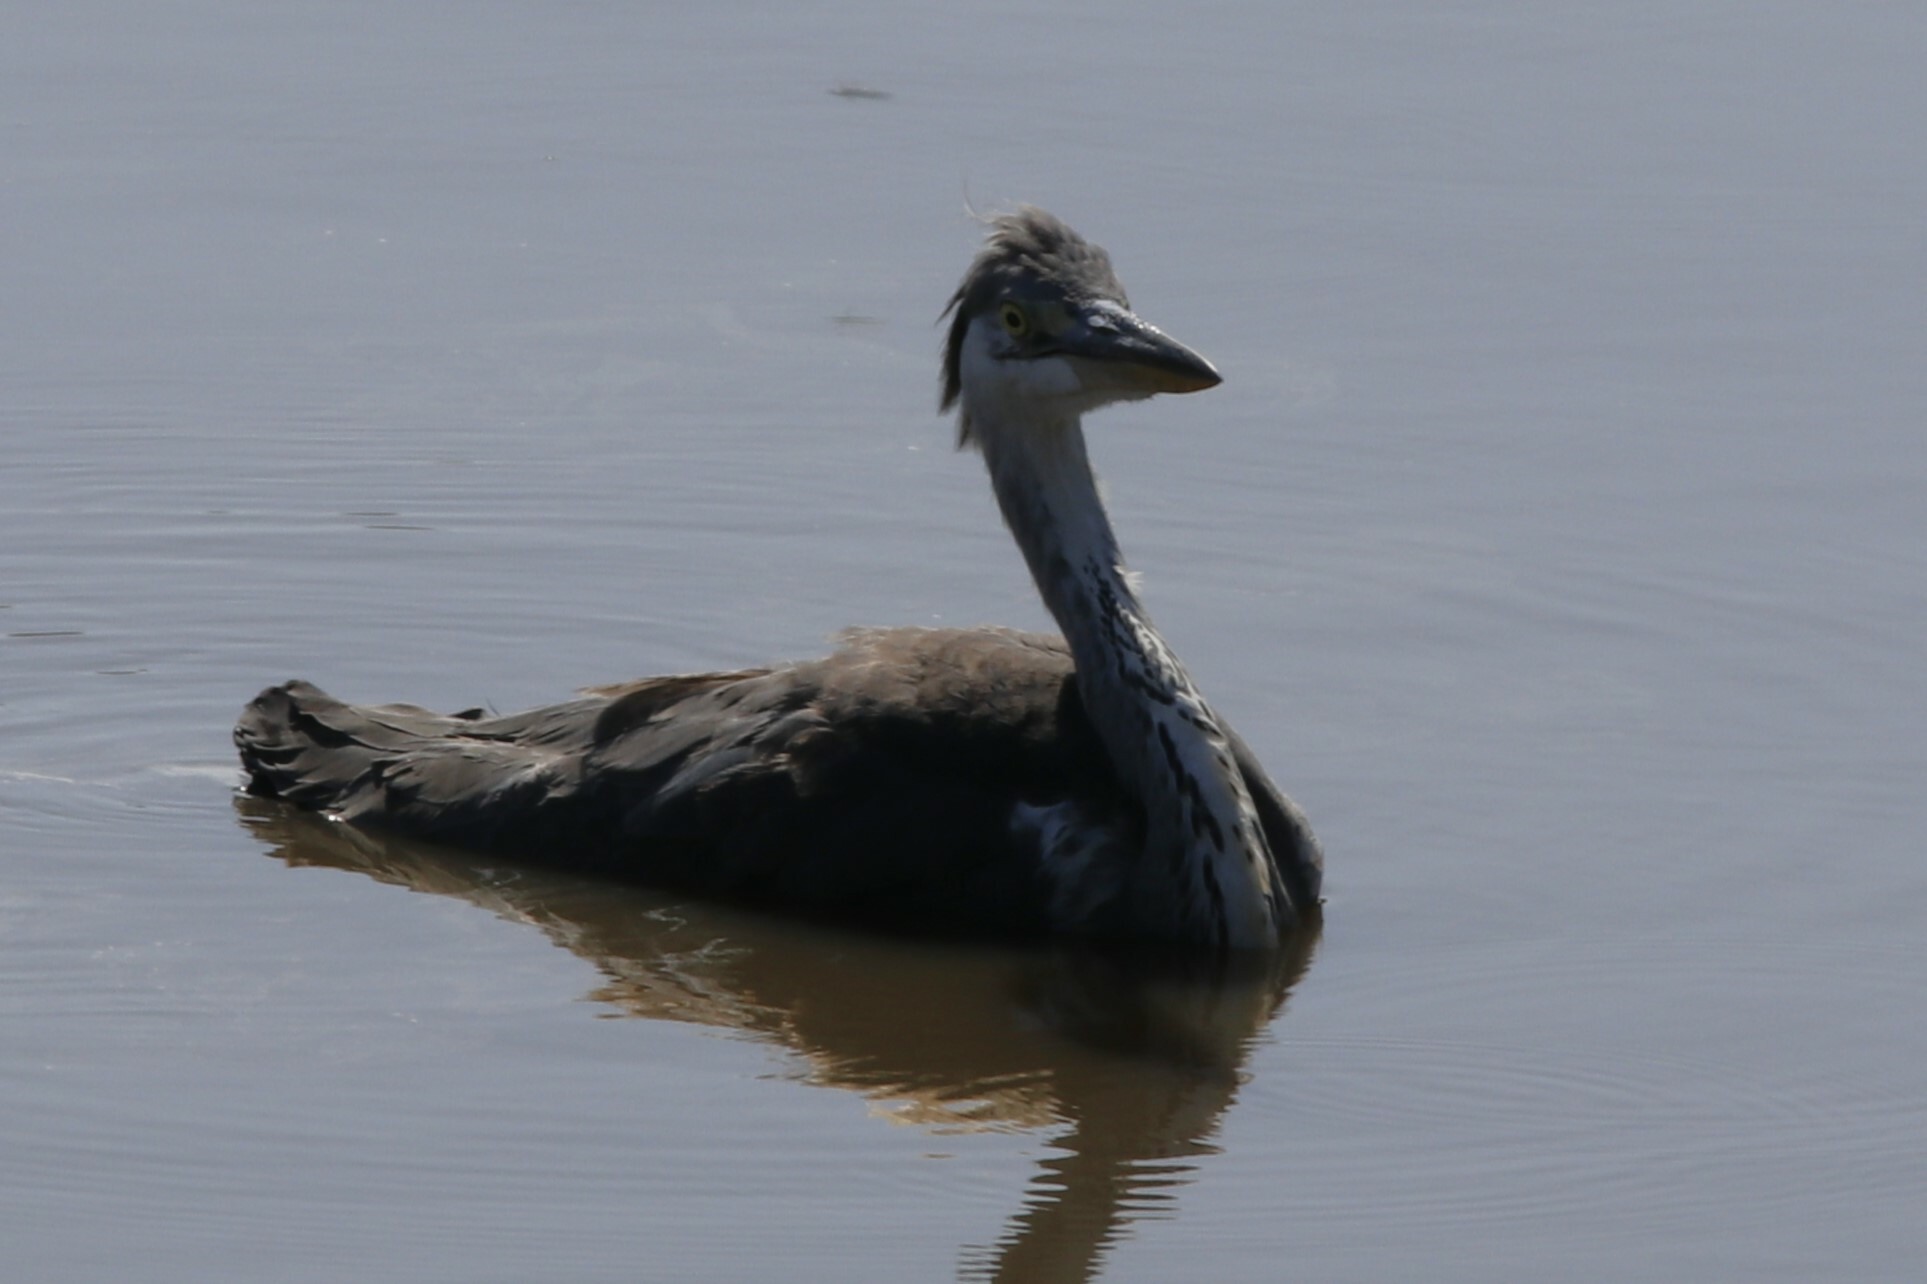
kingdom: Animalia
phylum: Chordata
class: Aves
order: Pelecaniformes
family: Ardeidae
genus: Ardea
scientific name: Ardea cinerea
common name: Grey heron
